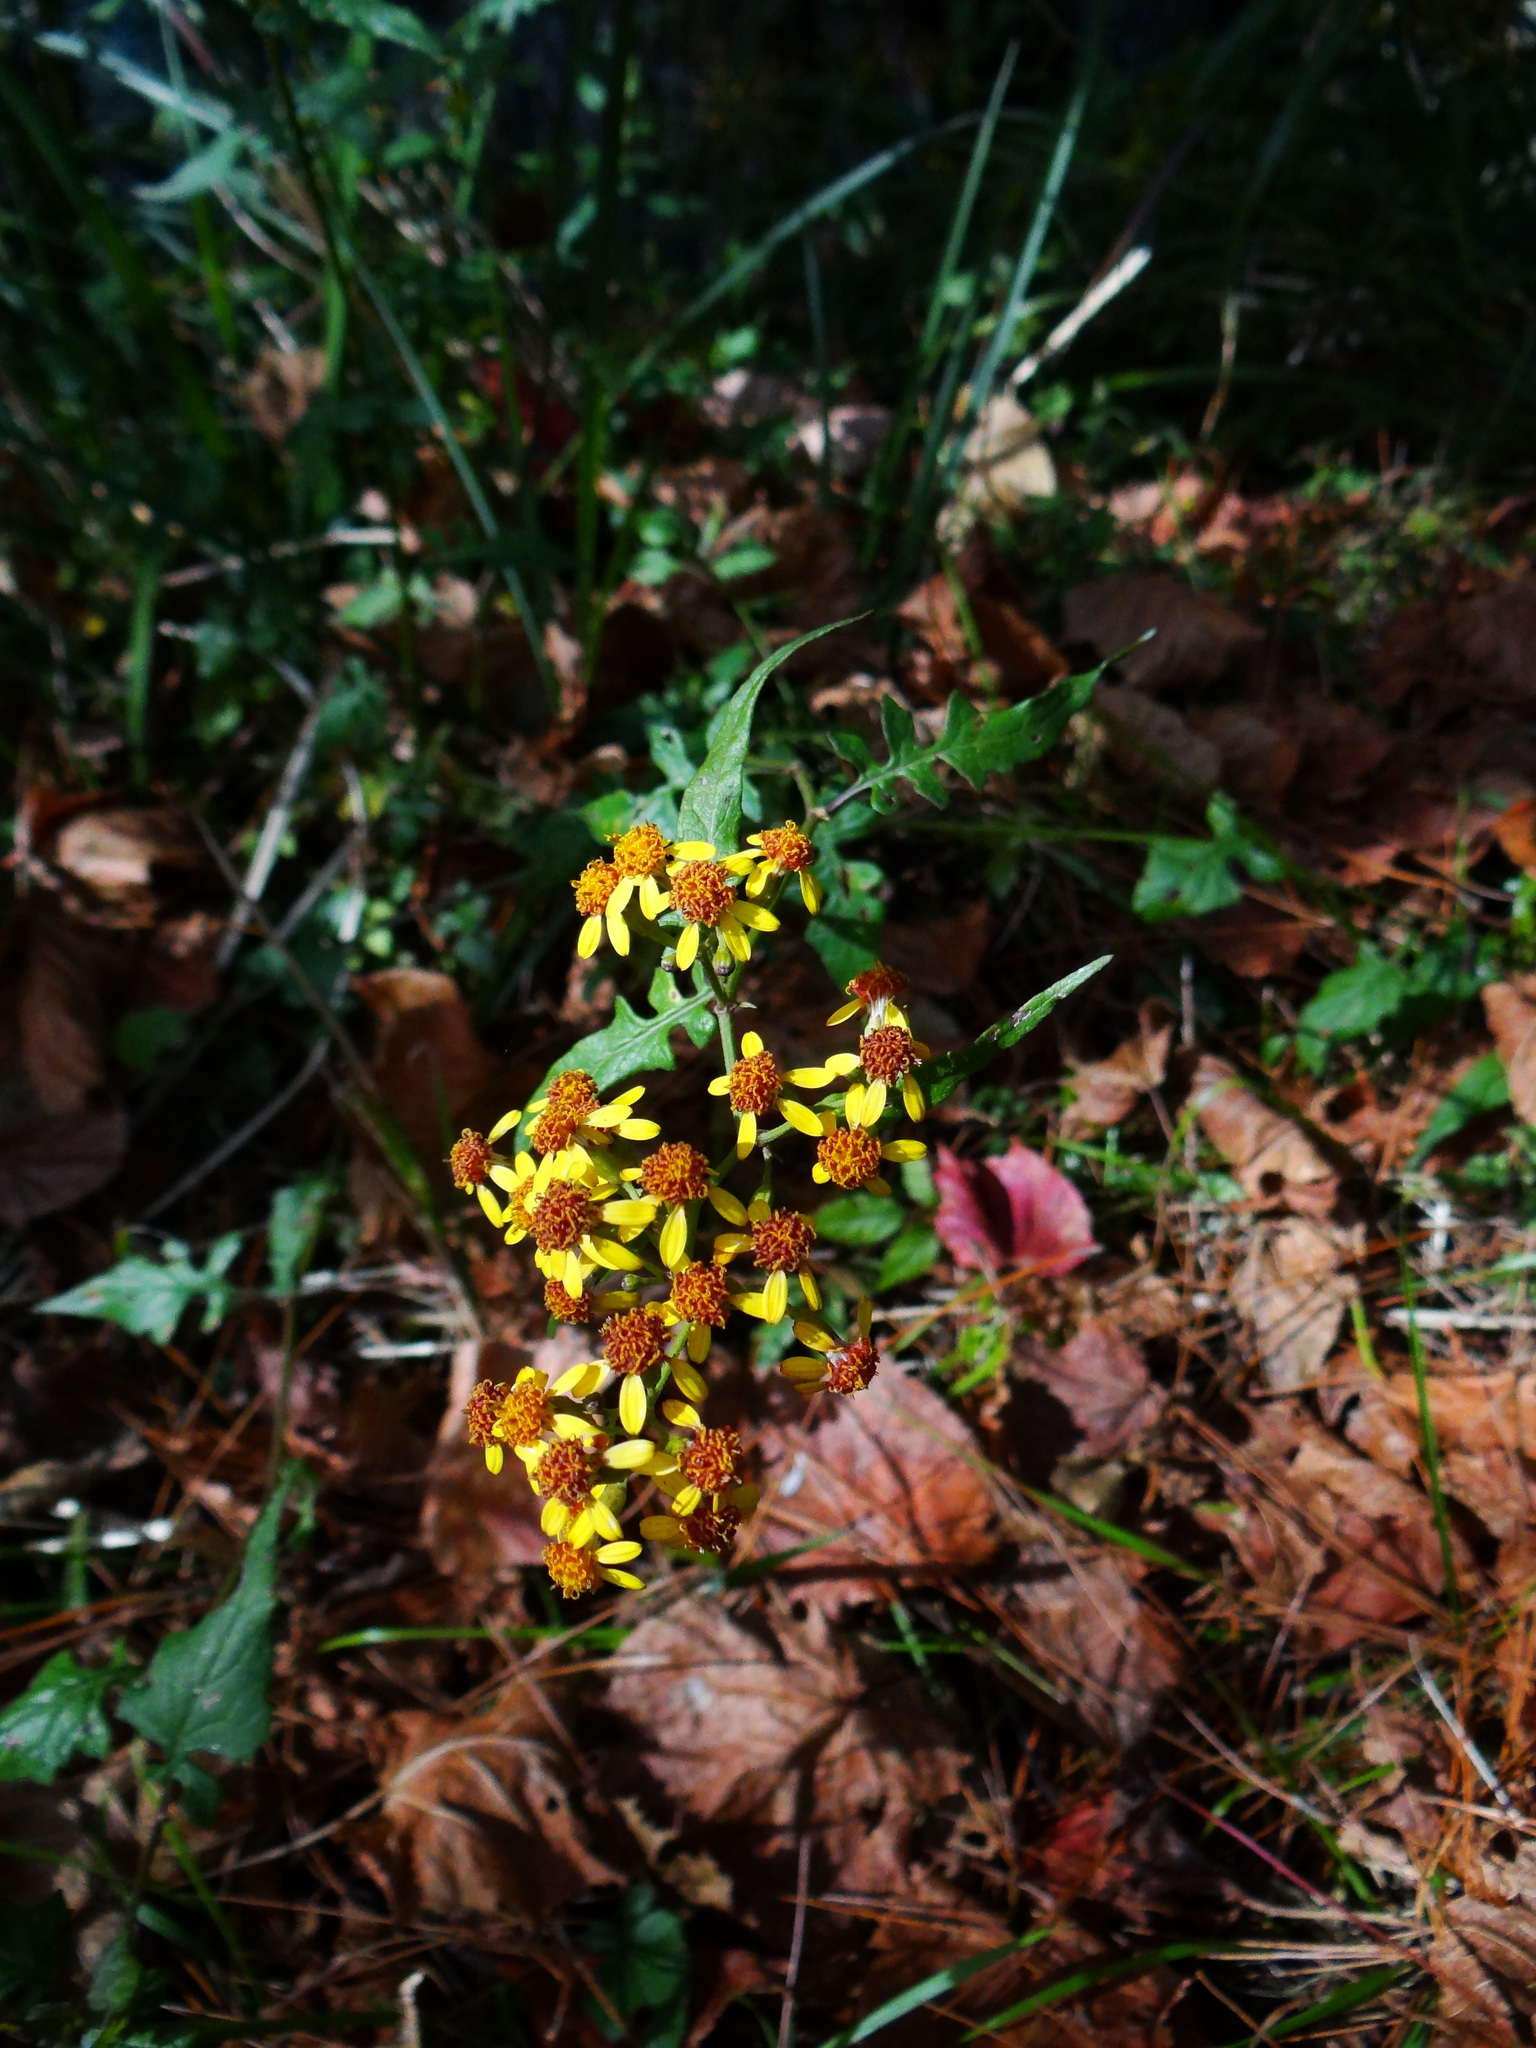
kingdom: Plantae
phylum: Tracheophyta
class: Magnoliopsida
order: Asterales
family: Asteraceae
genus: Senecio
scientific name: Senecio scandens
